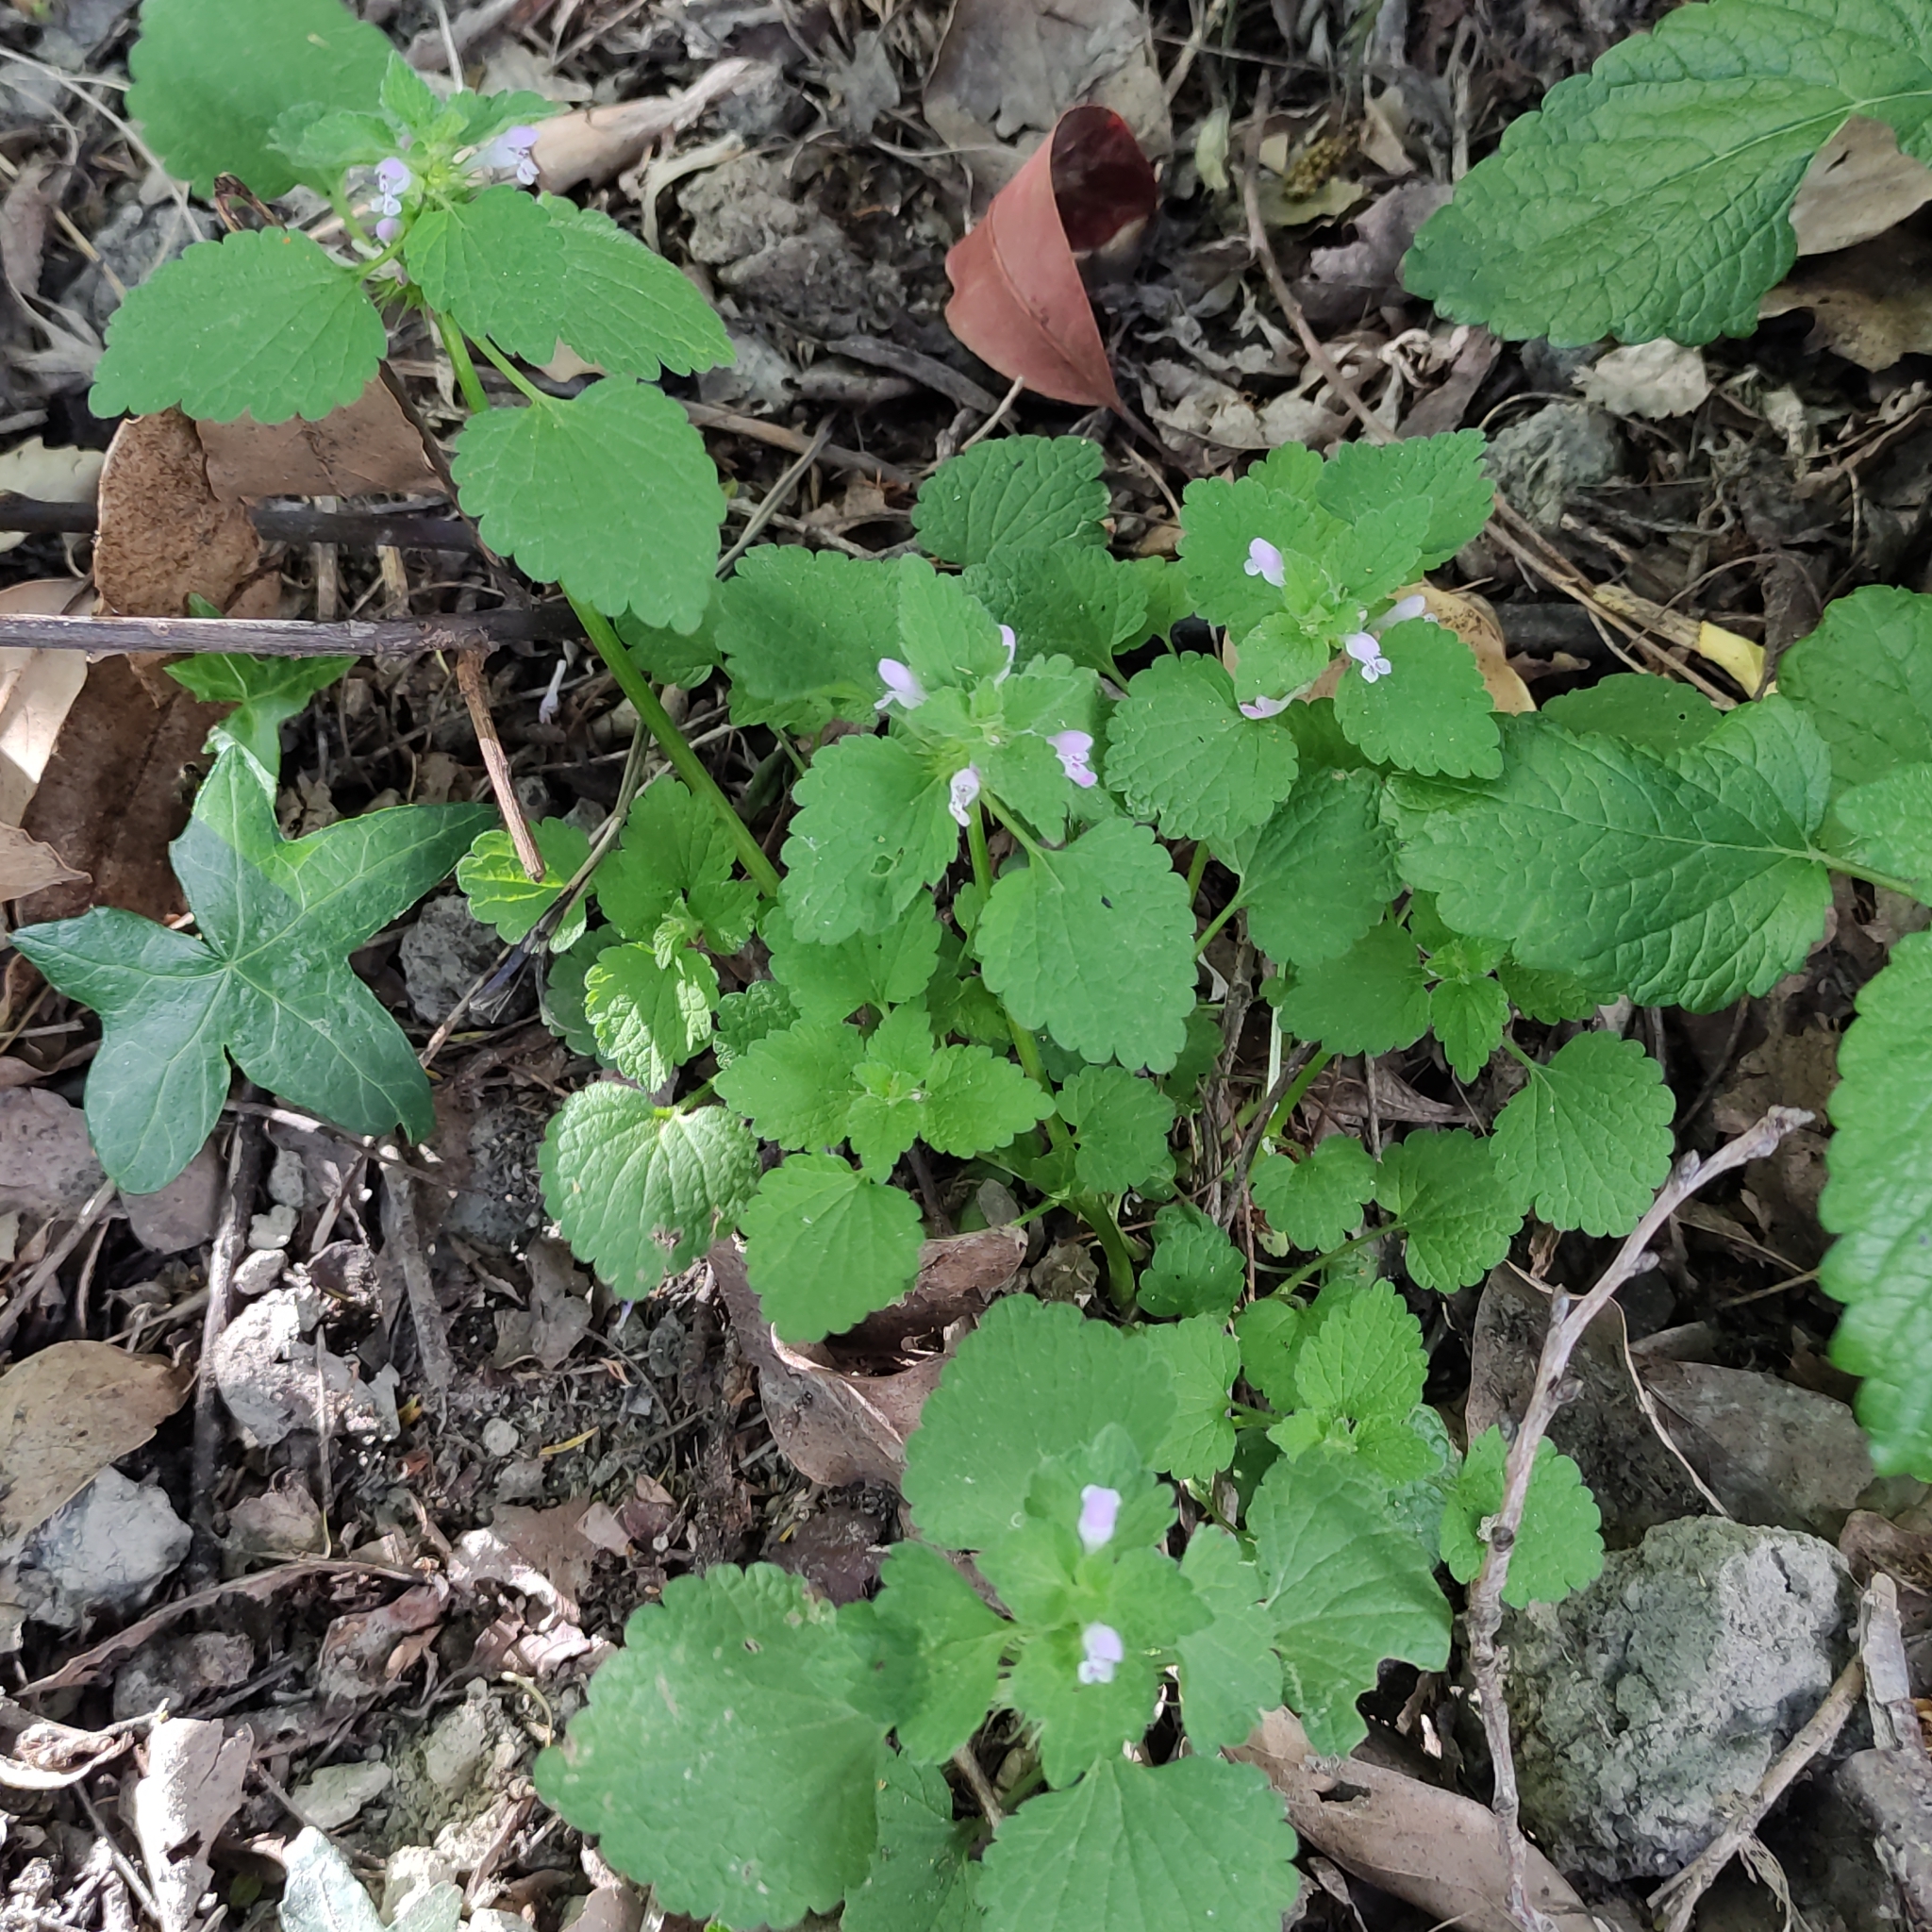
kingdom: Plantae
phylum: Tracheophyta
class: Magnoliopsida
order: Lamiales
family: Lamiaceae
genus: Lamium
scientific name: Lamium purpureum
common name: Red dead-nettle
